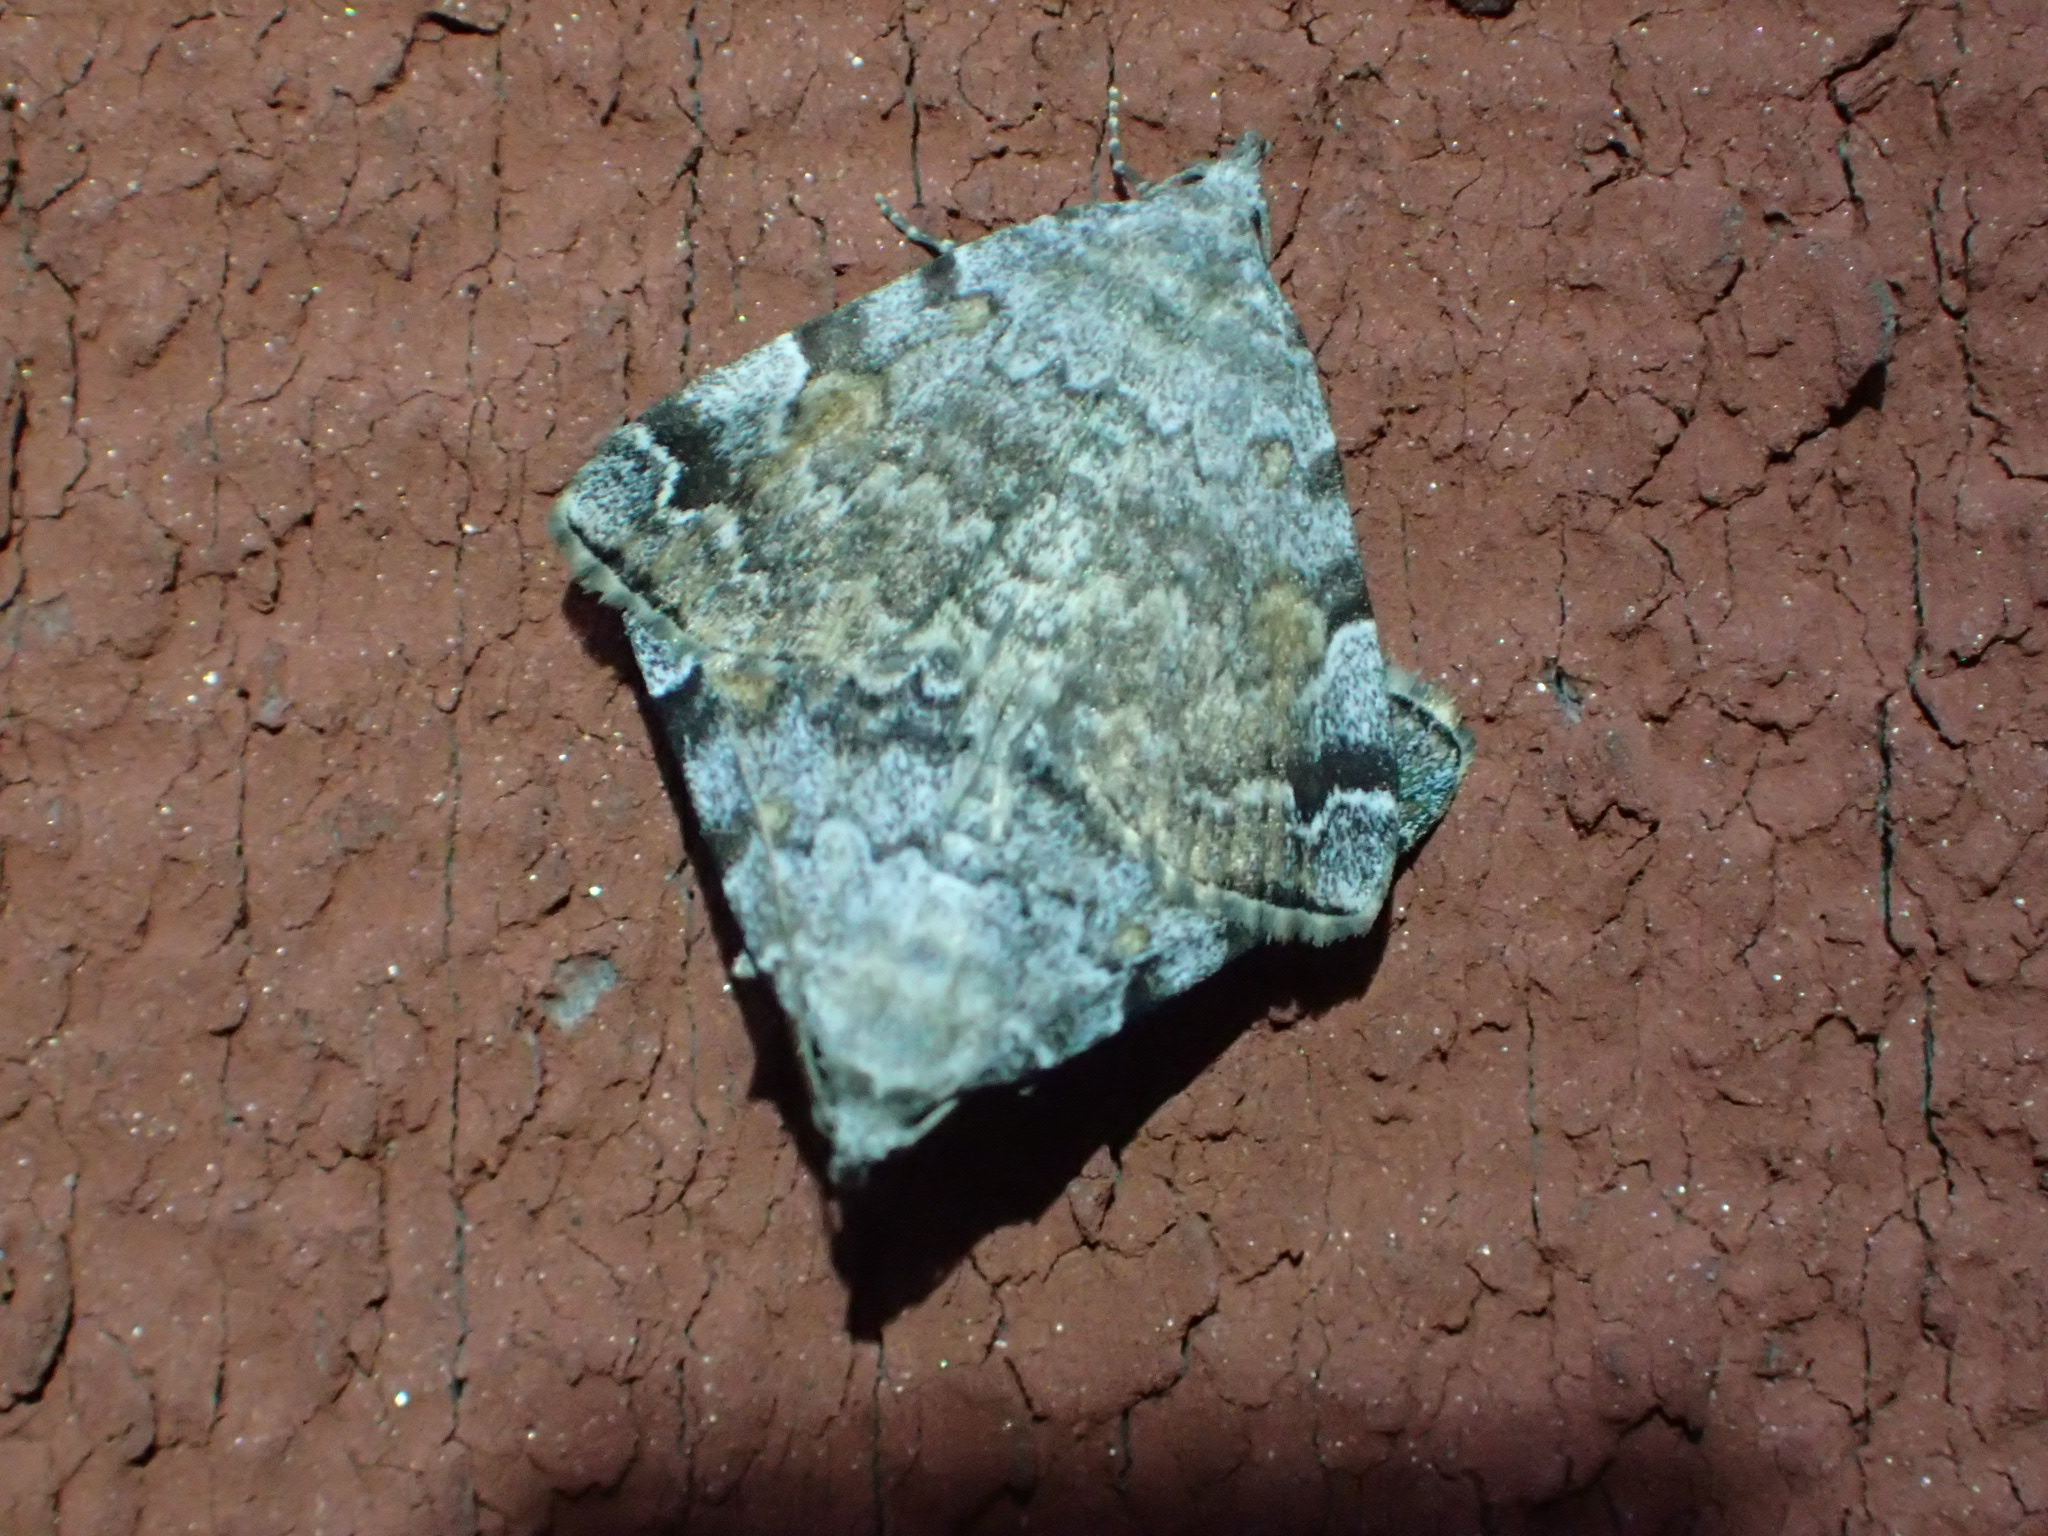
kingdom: Animalia
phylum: Arthropoda
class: Insecta
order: Lepidoptera
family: Erebidae
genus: Idia
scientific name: Idia americalis
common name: American idia moth
